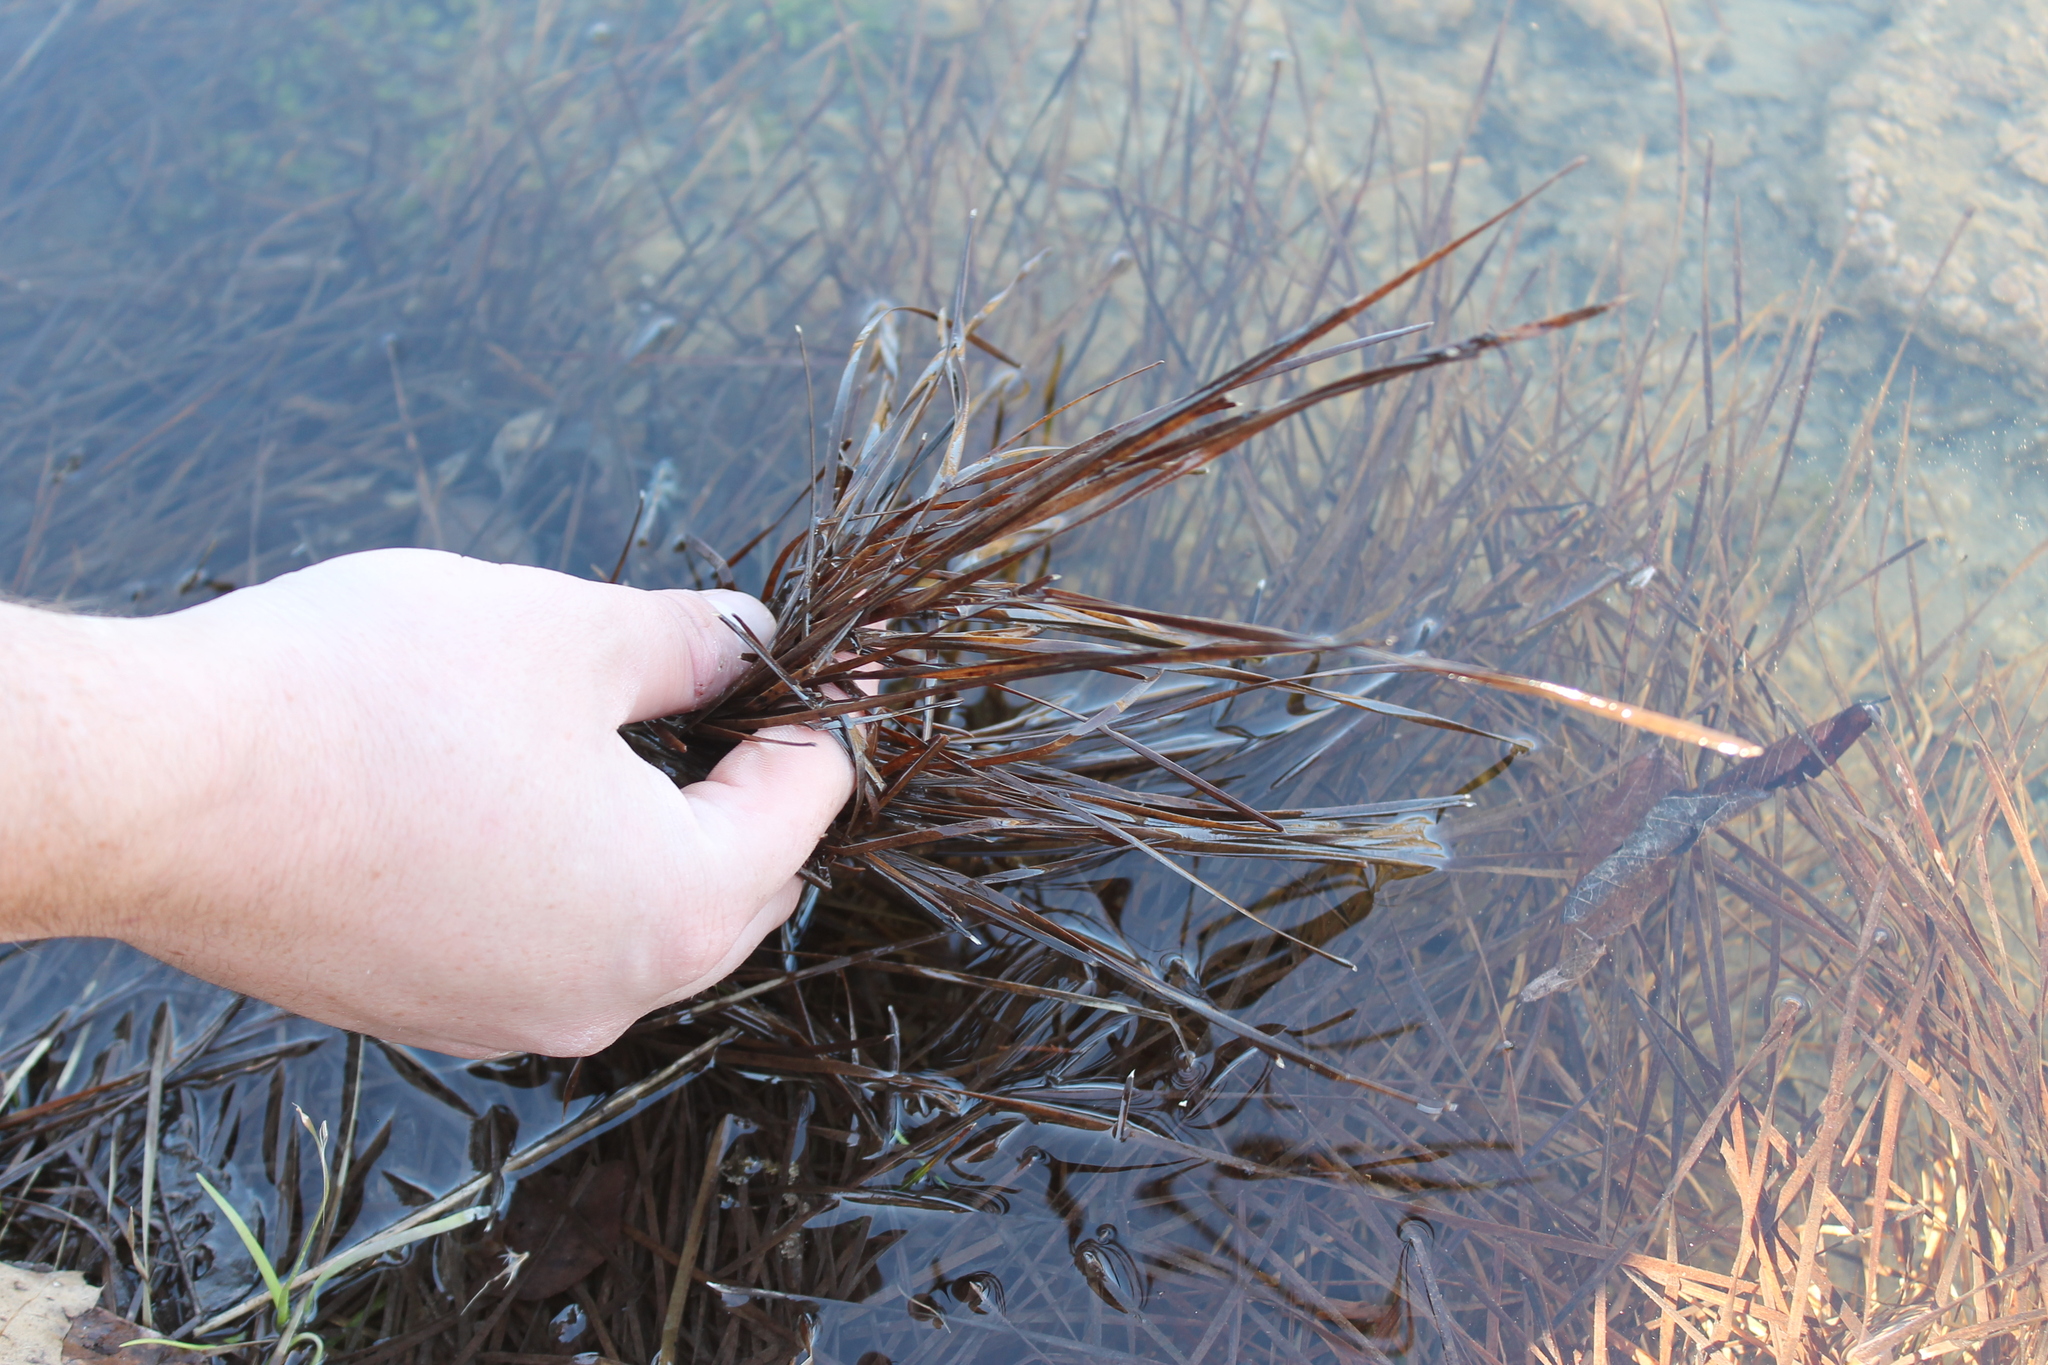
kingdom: Plantae
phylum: Tracheophyta
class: Liliopsida
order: Poales
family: Cyperaceae
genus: Eleocharis
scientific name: Eleocharis bifida
